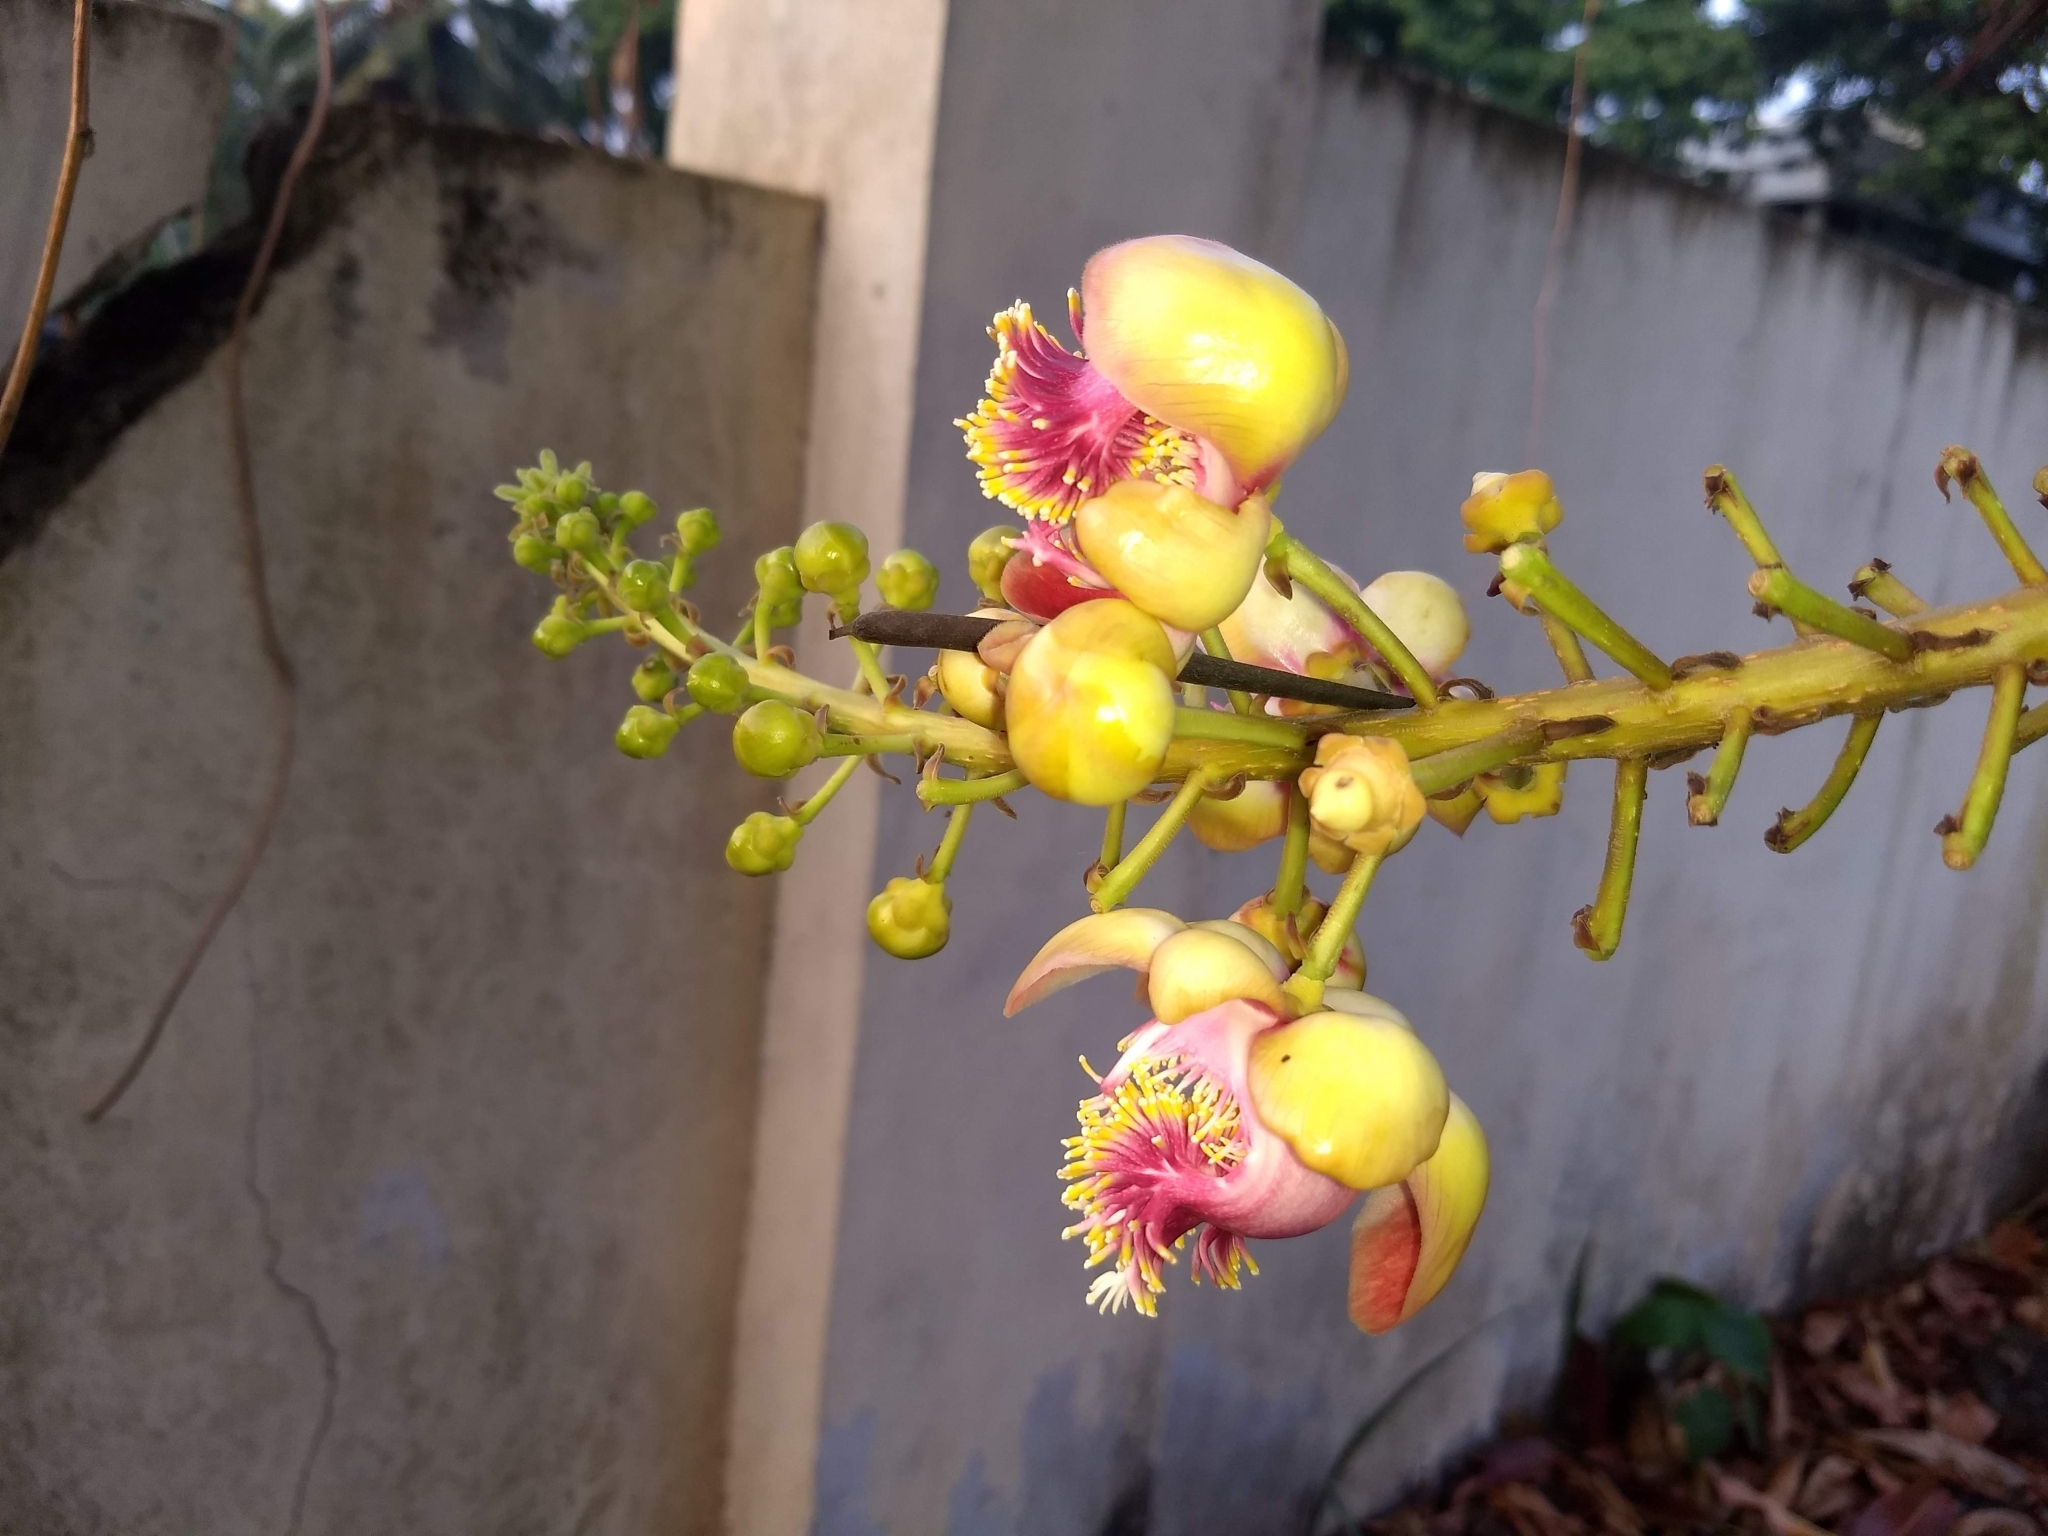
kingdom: Plantae
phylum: Tracheophyta
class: Magnoliopsida
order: Ericales
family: Lecythidaceae
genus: Couroupita
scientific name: Couroupita guianensis
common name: Cannonball tree
